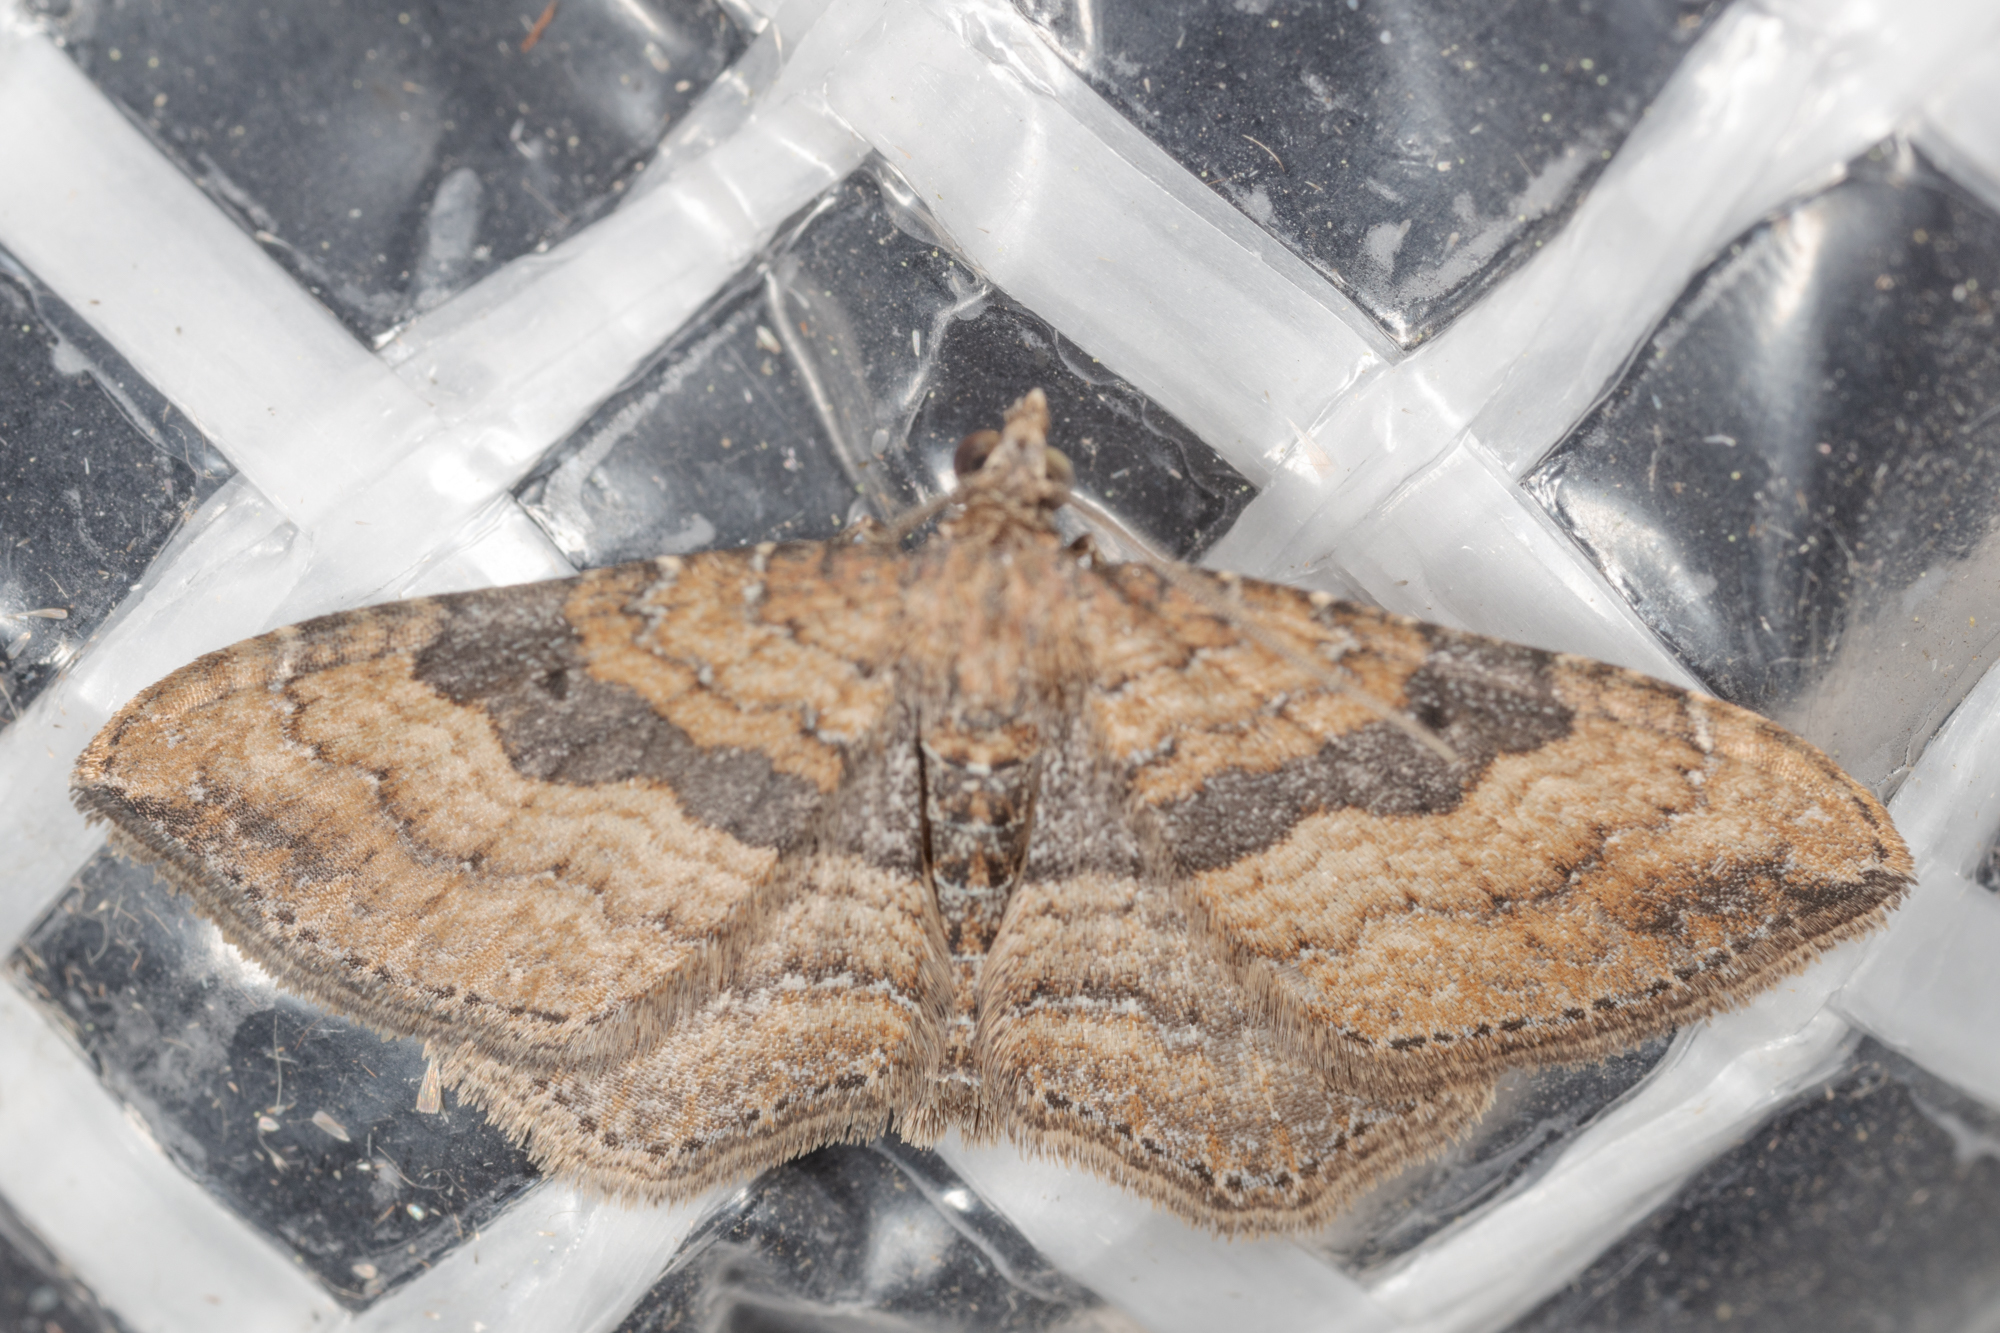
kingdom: Animalia
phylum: Arthropoda
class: Insecta
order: Lepidoptera
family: Geometridae
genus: Orthonama
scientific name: Orthonama obstipata
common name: The gem
